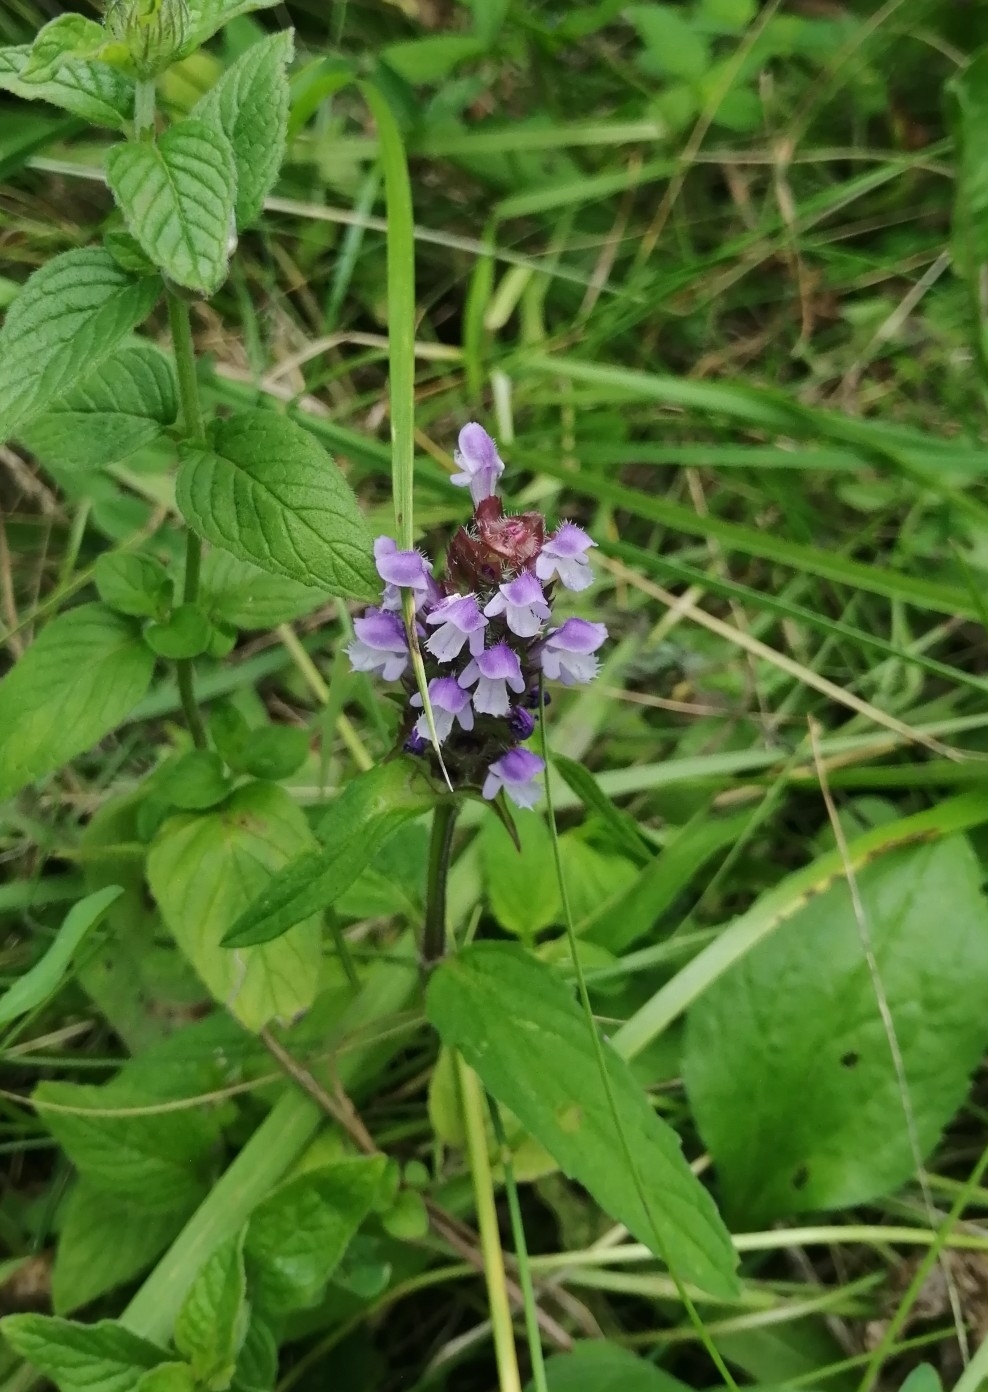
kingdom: Plantae
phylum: Tracheophyta
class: Magnoliopsida
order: Lamiales
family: Lamiaceae
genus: Prunella
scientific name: Prunella vulgaris
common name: Heal-all
